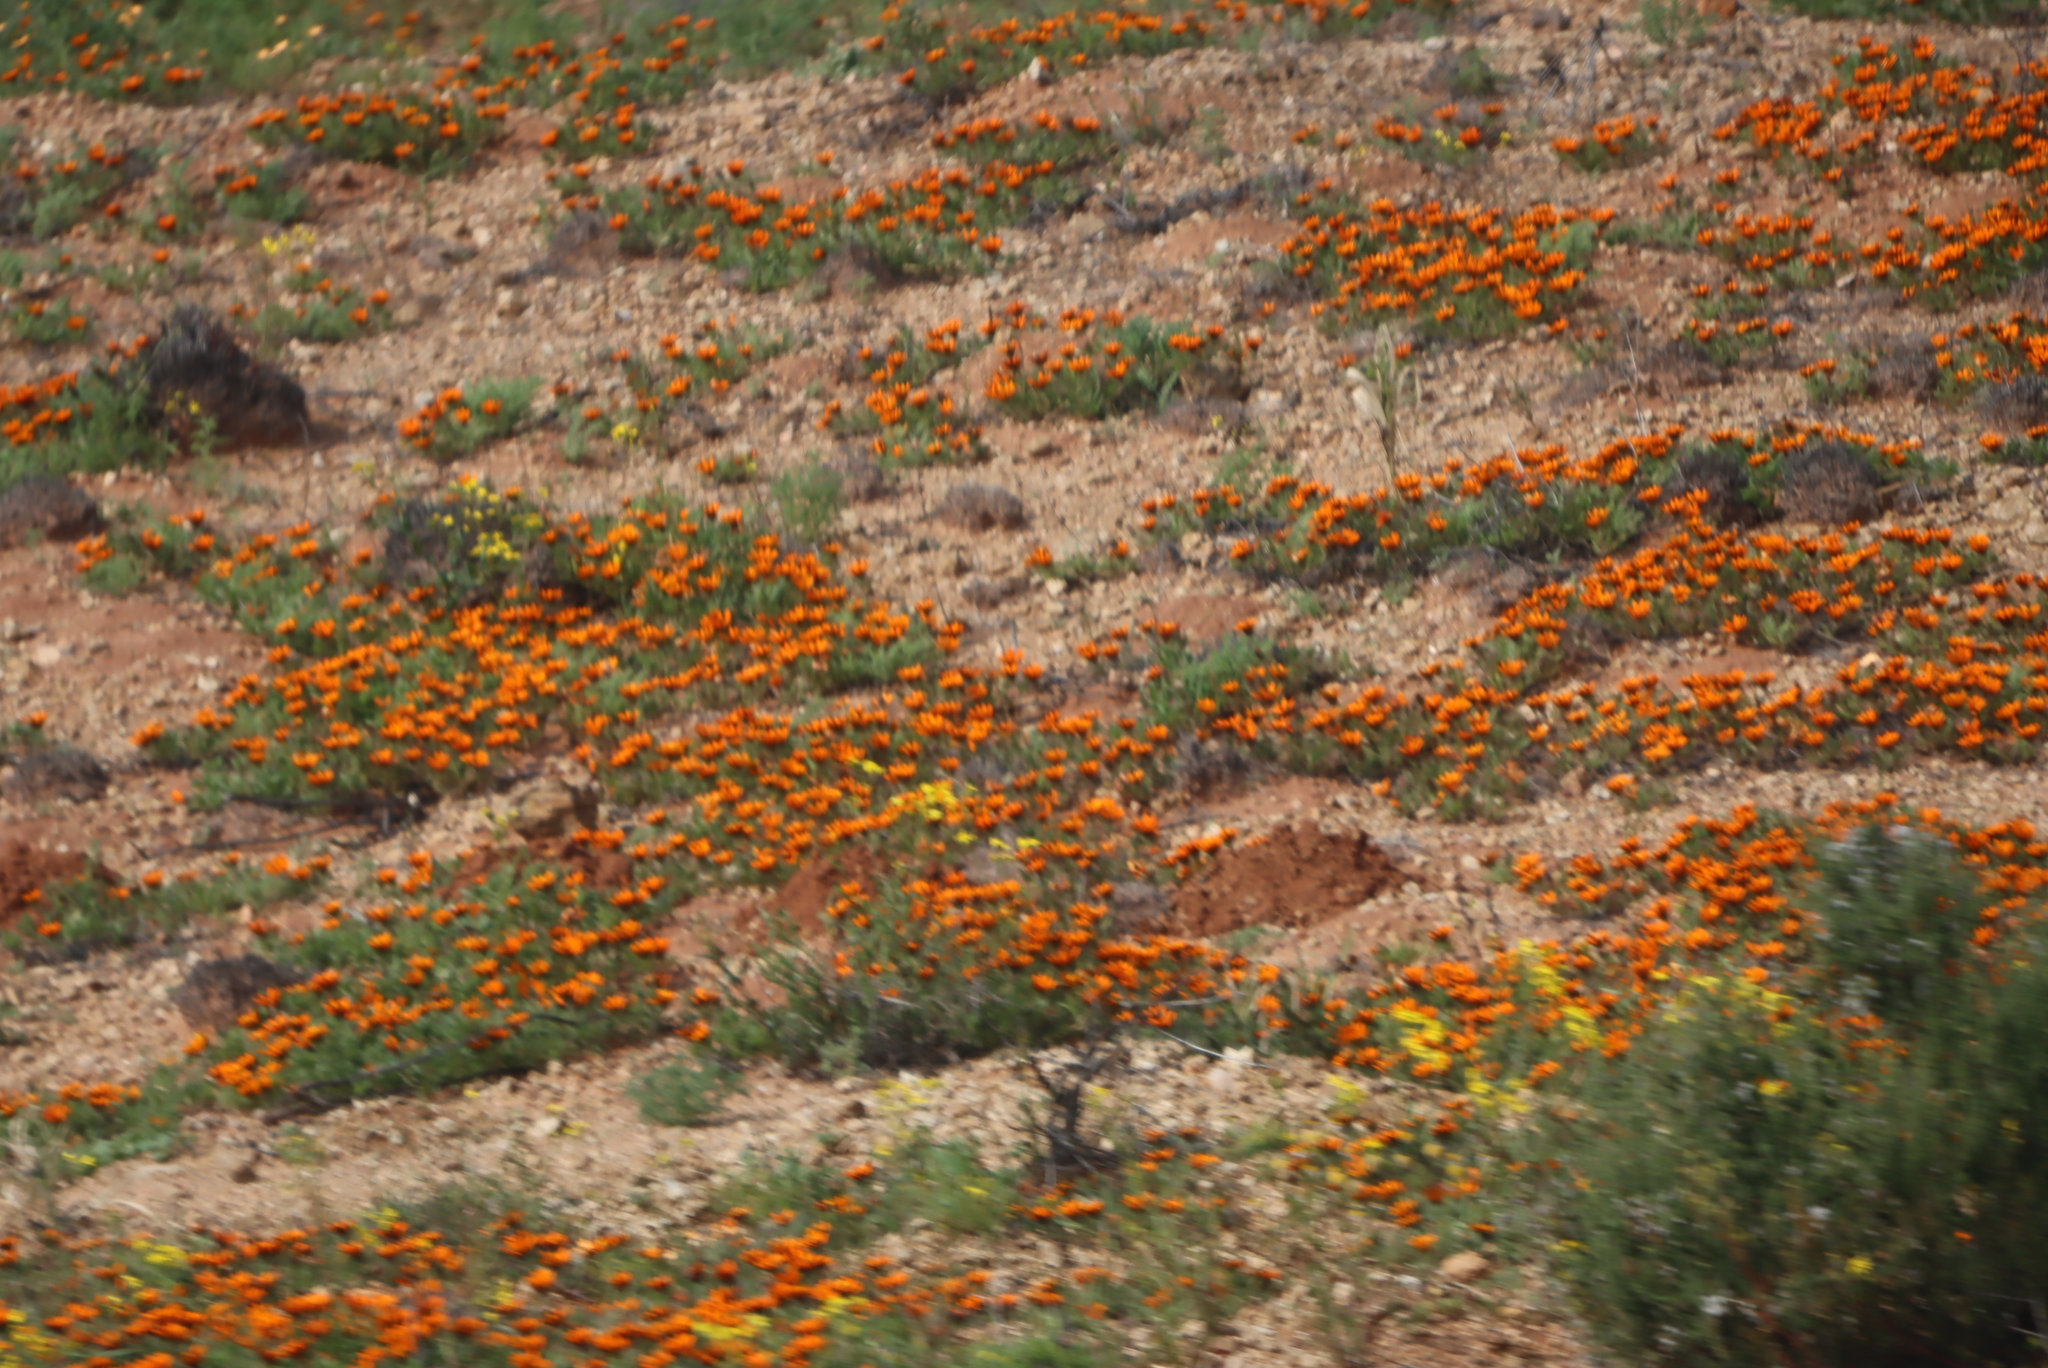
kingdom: Plantae
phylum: Tracheophyta
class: Magnoliopsida
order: Asterales
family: Asteraceae
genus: Gorteria
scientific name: Gorteria diffusa
